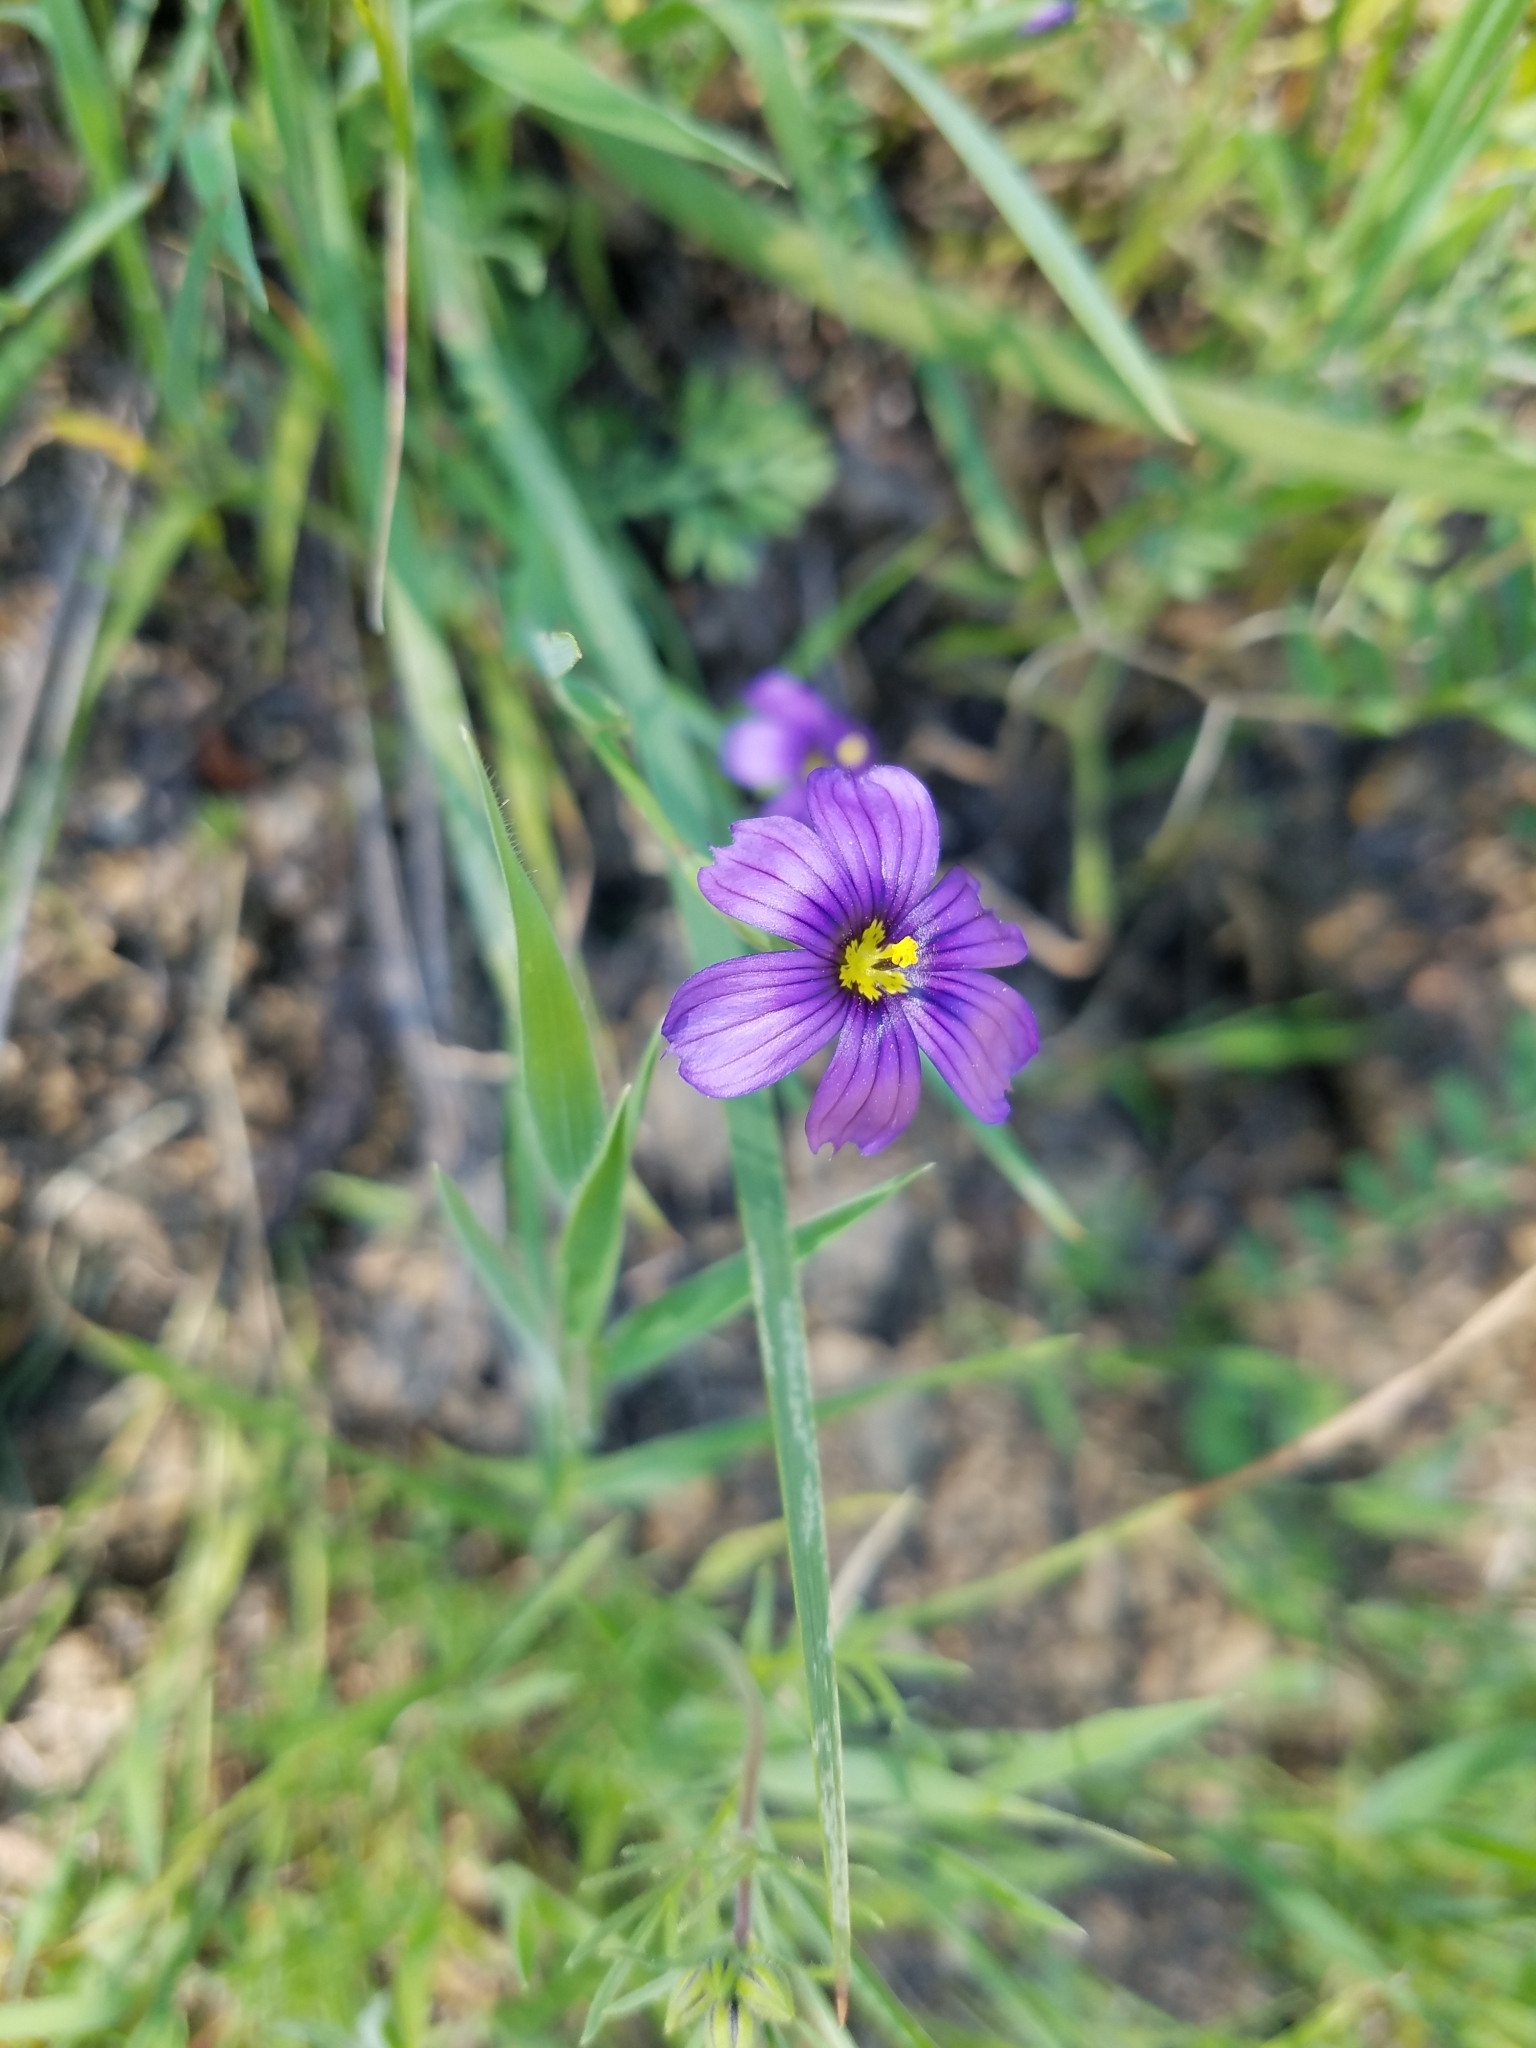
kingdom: Plantae
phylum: Tracheophyta
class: Liliopsida
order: Asparagales
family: Iridaceae
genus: Sisyrinchium
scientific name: Sisyrinchium bellum
